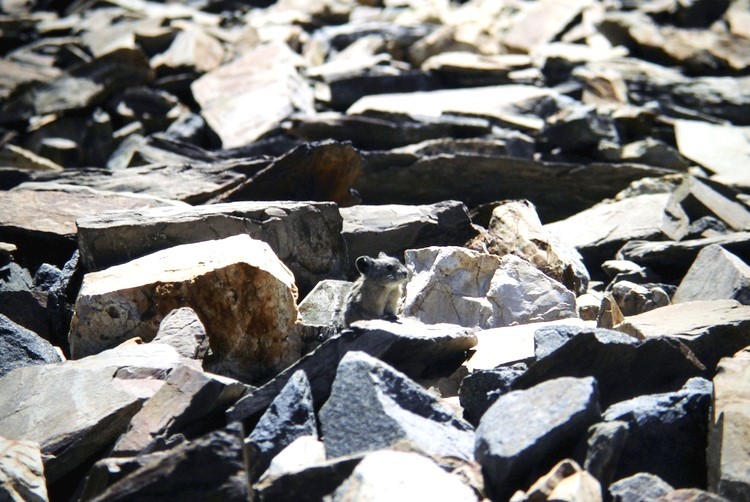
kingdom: Animalia
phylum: Chordata
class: Mammalia
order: Lagomorpha
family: Ochotonidae
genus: Ochotona
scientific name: Ochotona princeps
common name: American pika
